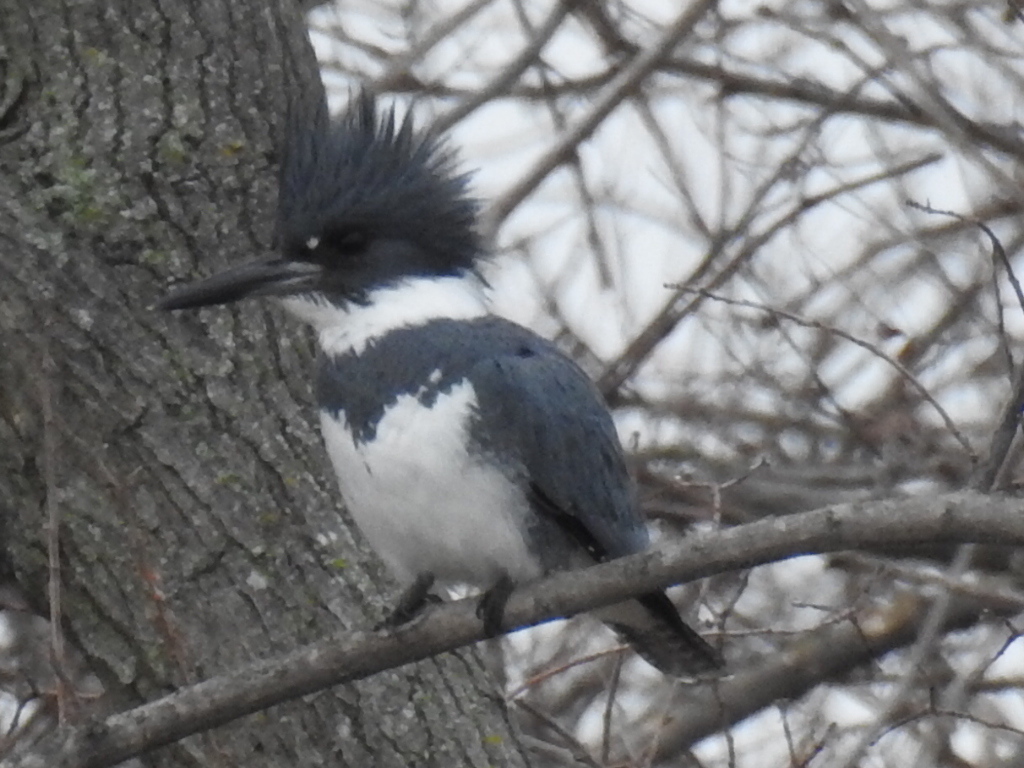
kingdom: Animalia
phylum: Chordata
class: Aves
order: Coraciiformes
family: Alcedinidae
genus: Megaceryle
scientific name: Megaceryle alcyon
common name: Belted kingfisher
